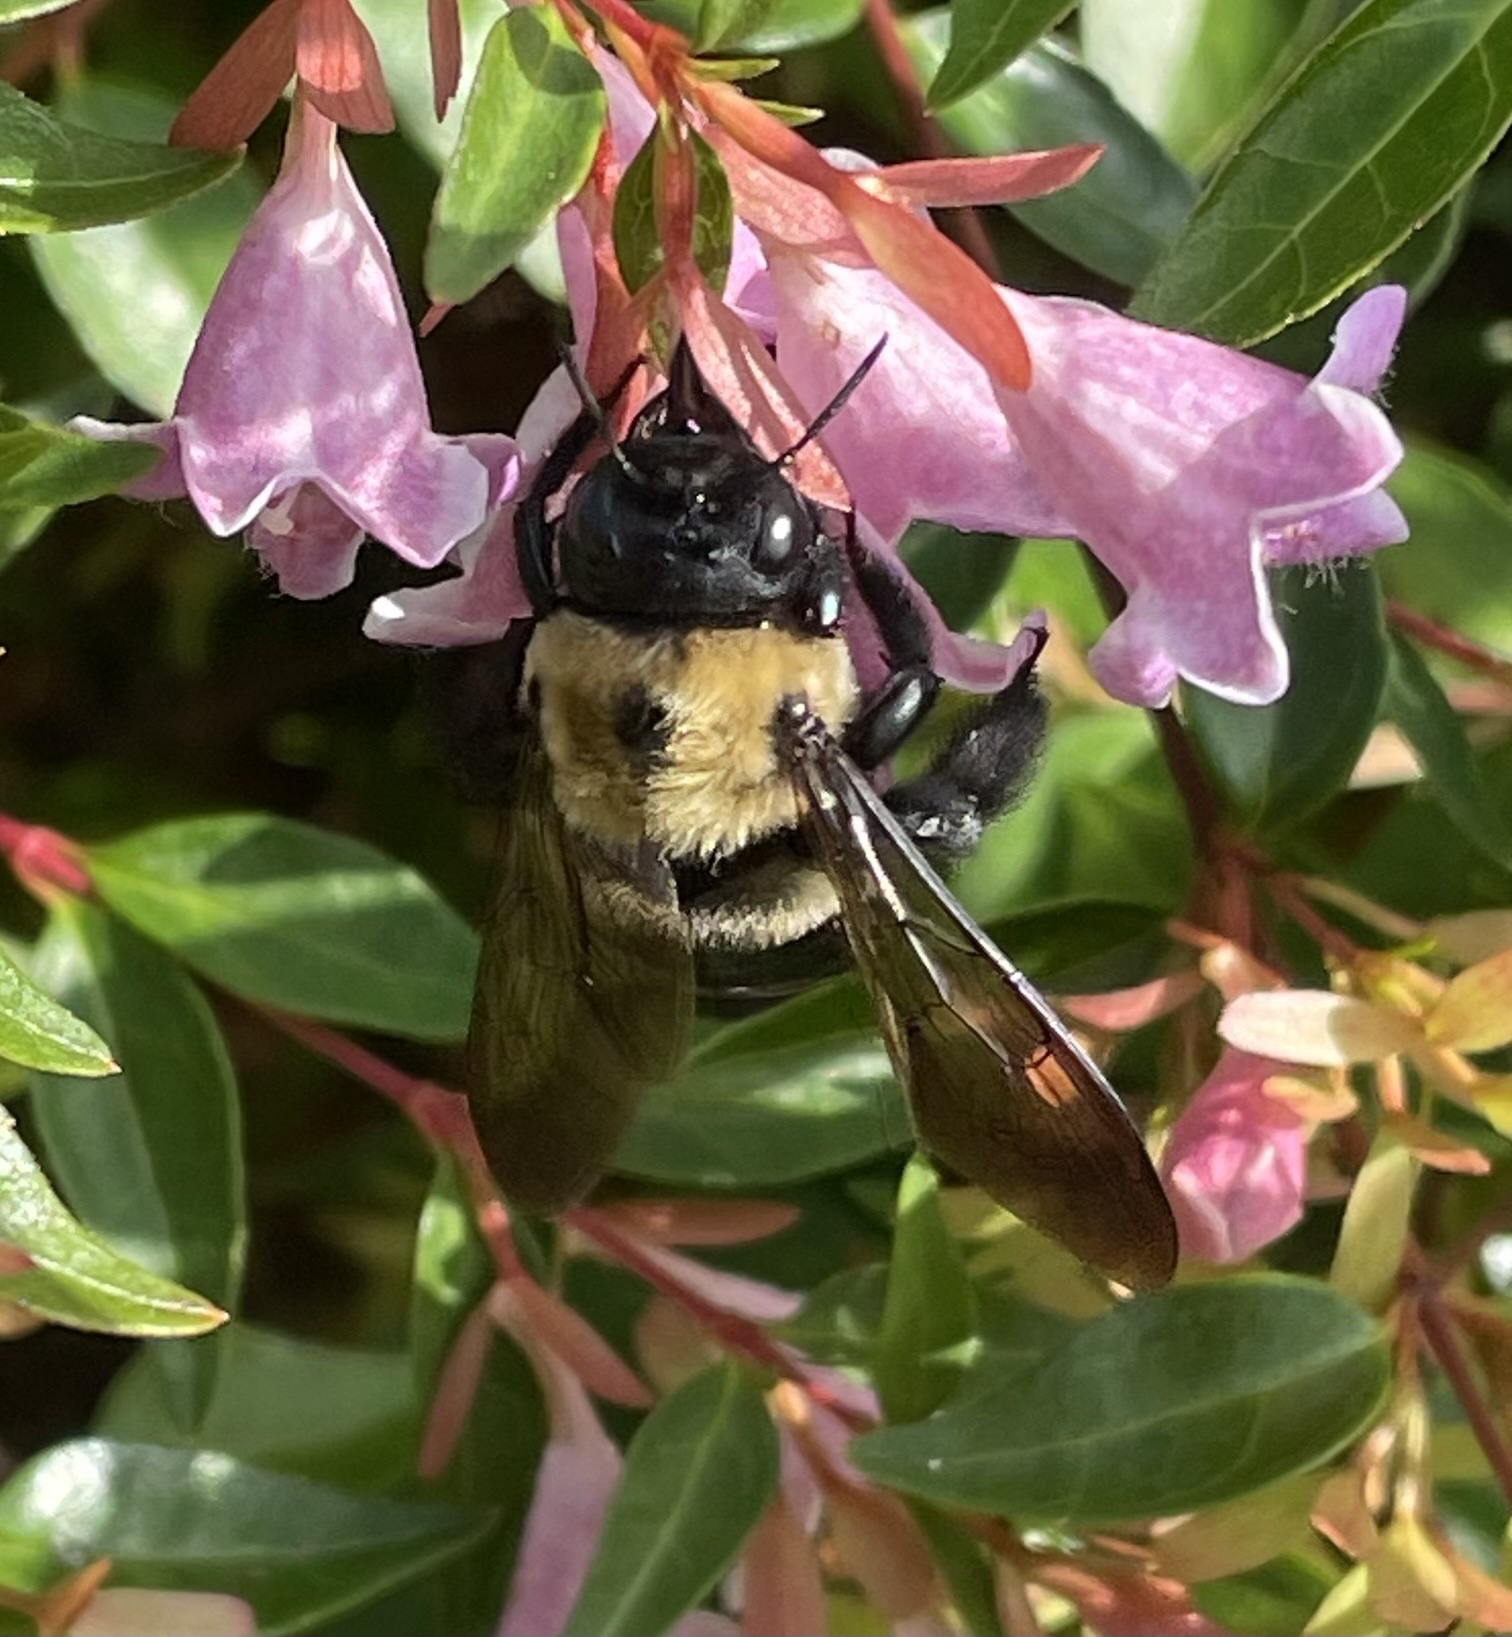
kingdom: Animalia
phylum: Arthropoda
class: Insecta
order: Hymenoptera
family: Apidae
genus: Xylocopa
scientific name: Xylocopa virginica
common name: Carpenter bee
